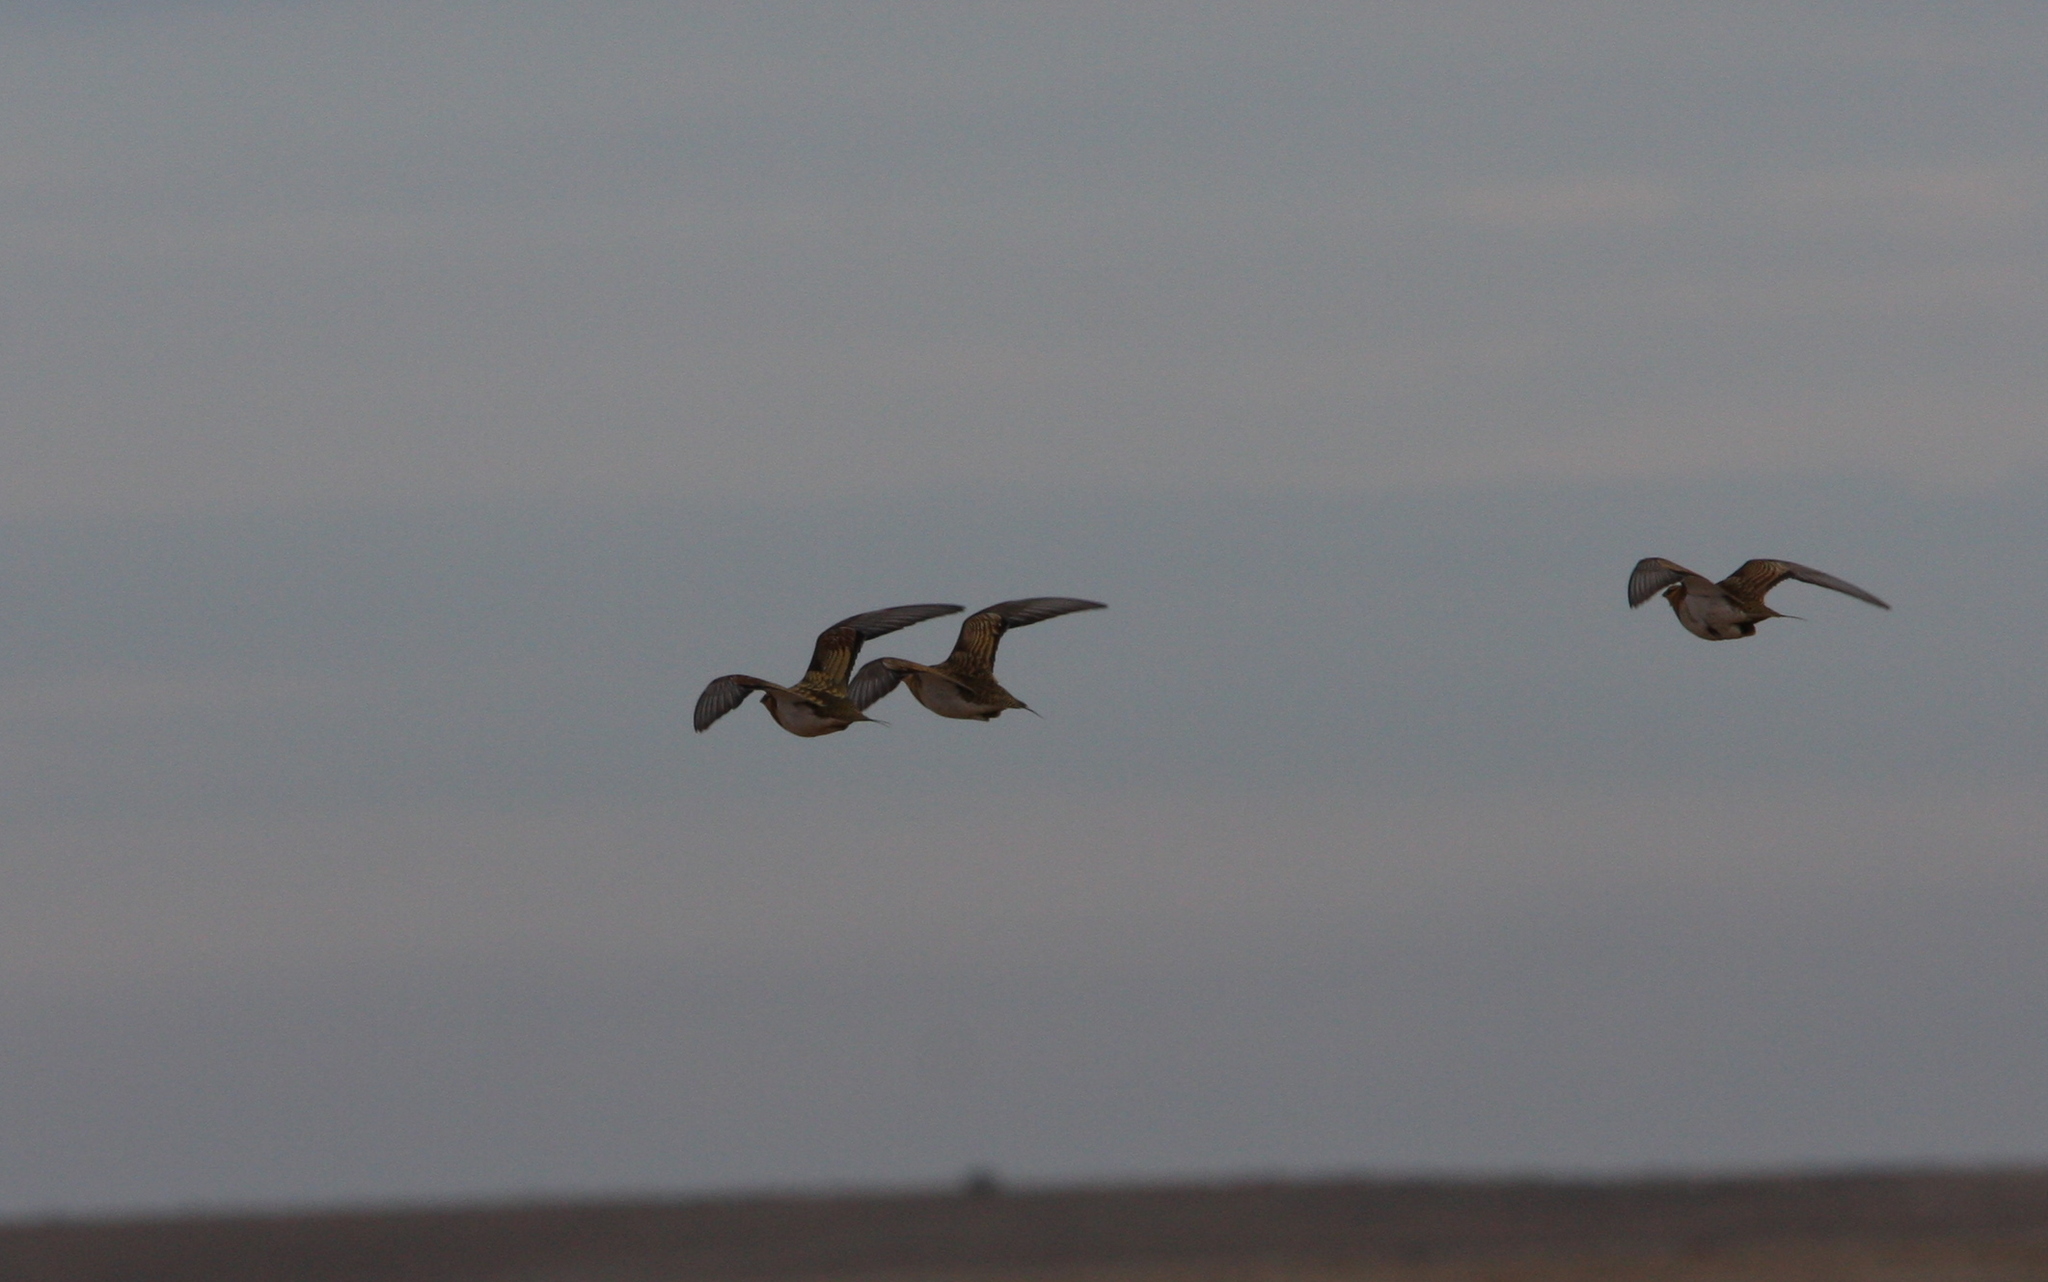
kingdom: Animalia
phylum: Chordata
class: Aves
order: Pteroclidiformes
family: Pteroclididae
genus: Pterocles
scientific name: Pterocles alchata
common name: Pin-tailed sandgrouse
